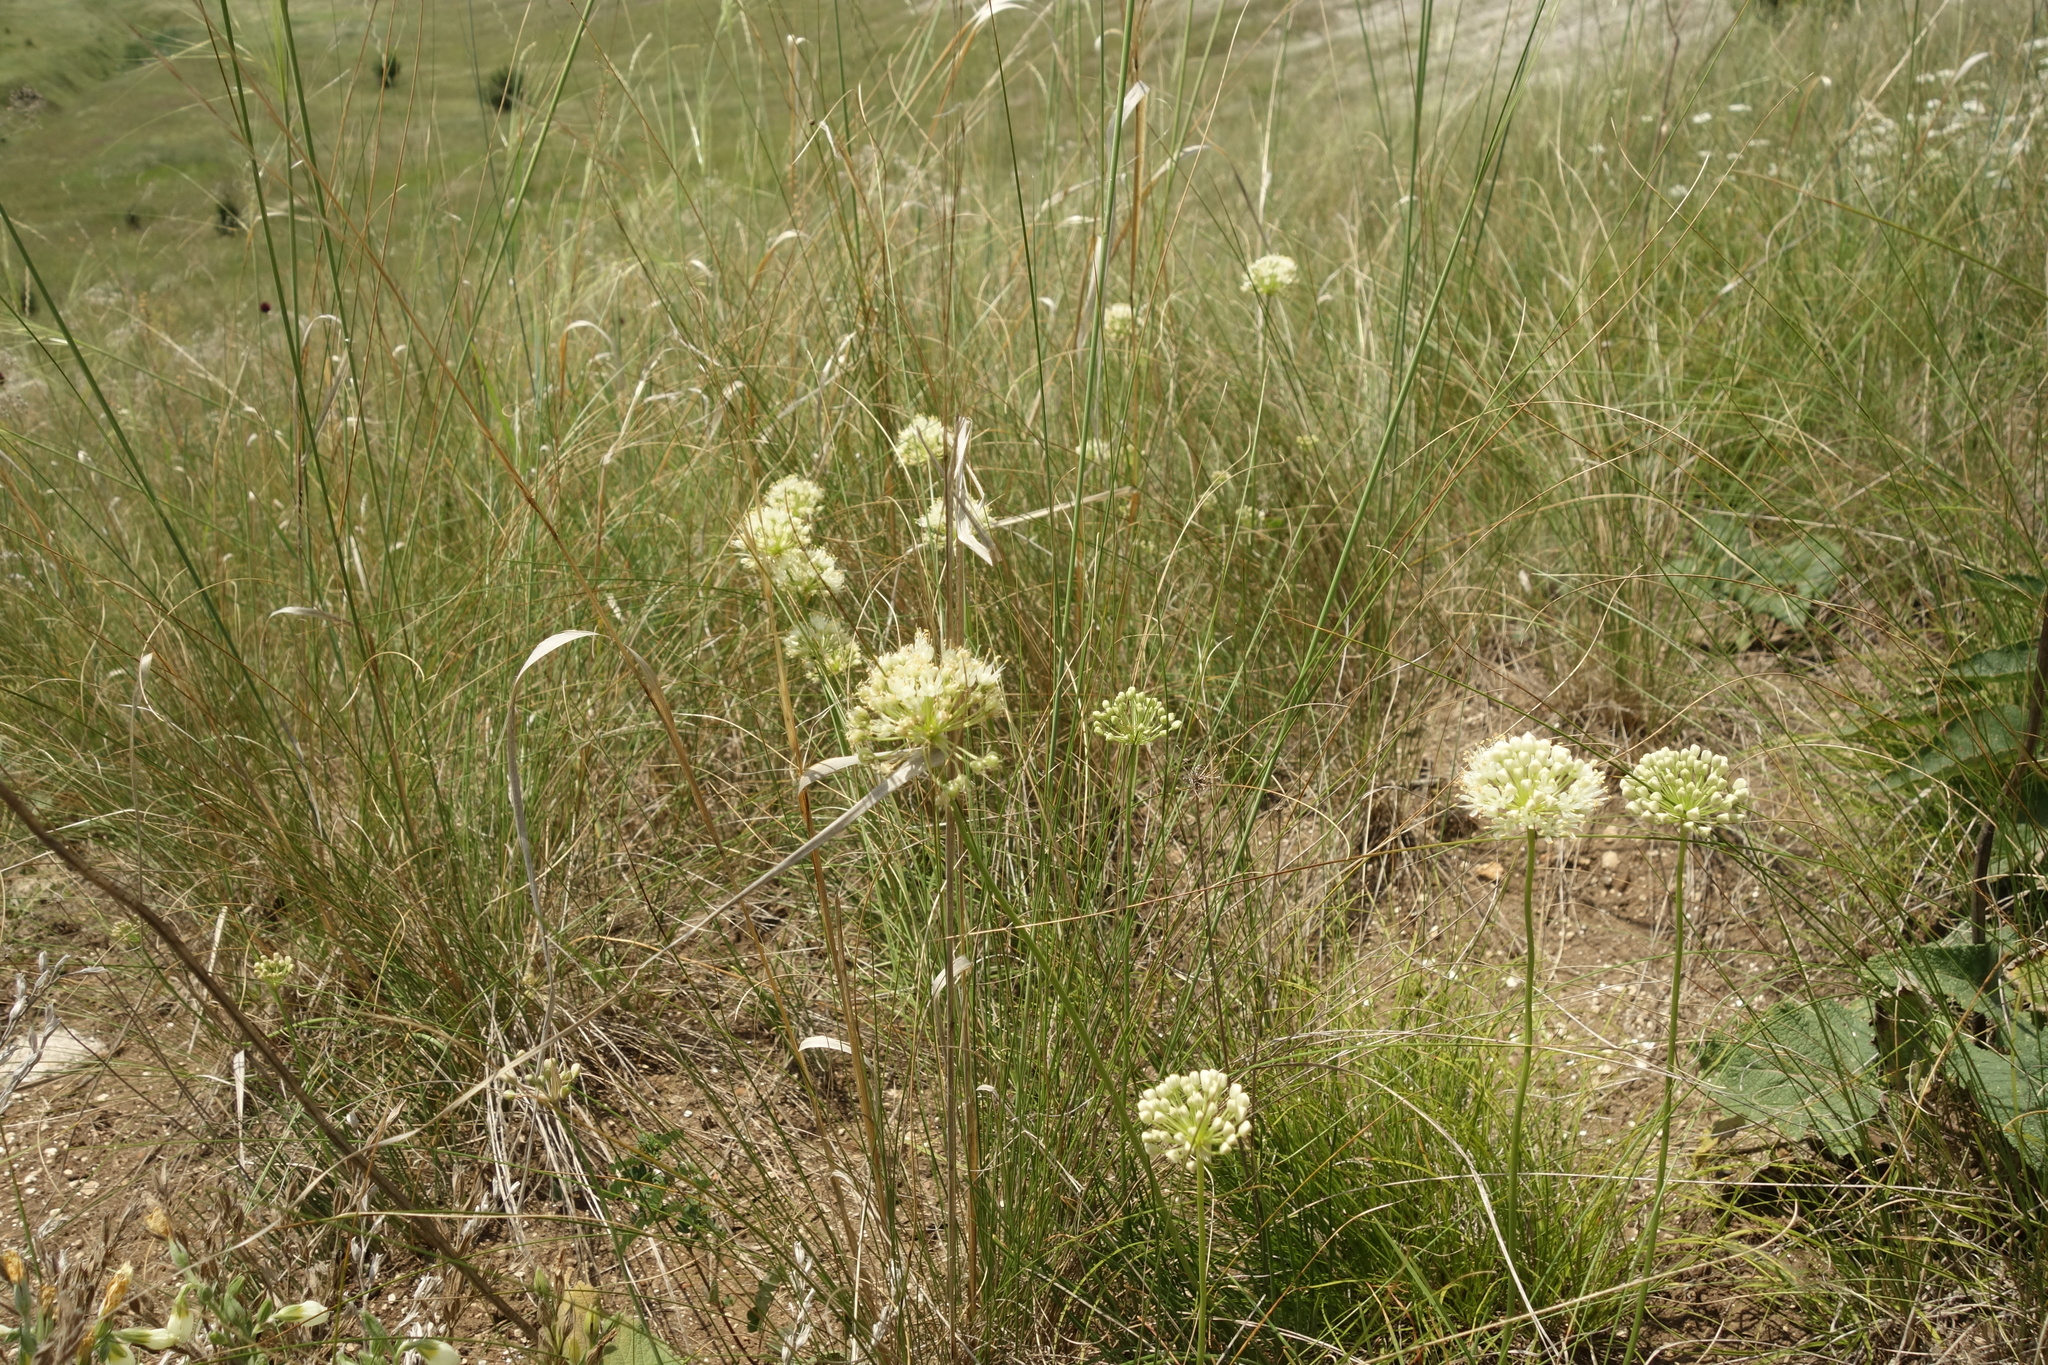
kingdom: Plantae
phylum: Tracheophyta
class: Liliopsida
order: Asparagales
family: Amaryllidaceae
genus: Allium
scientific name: Allium flavescens
